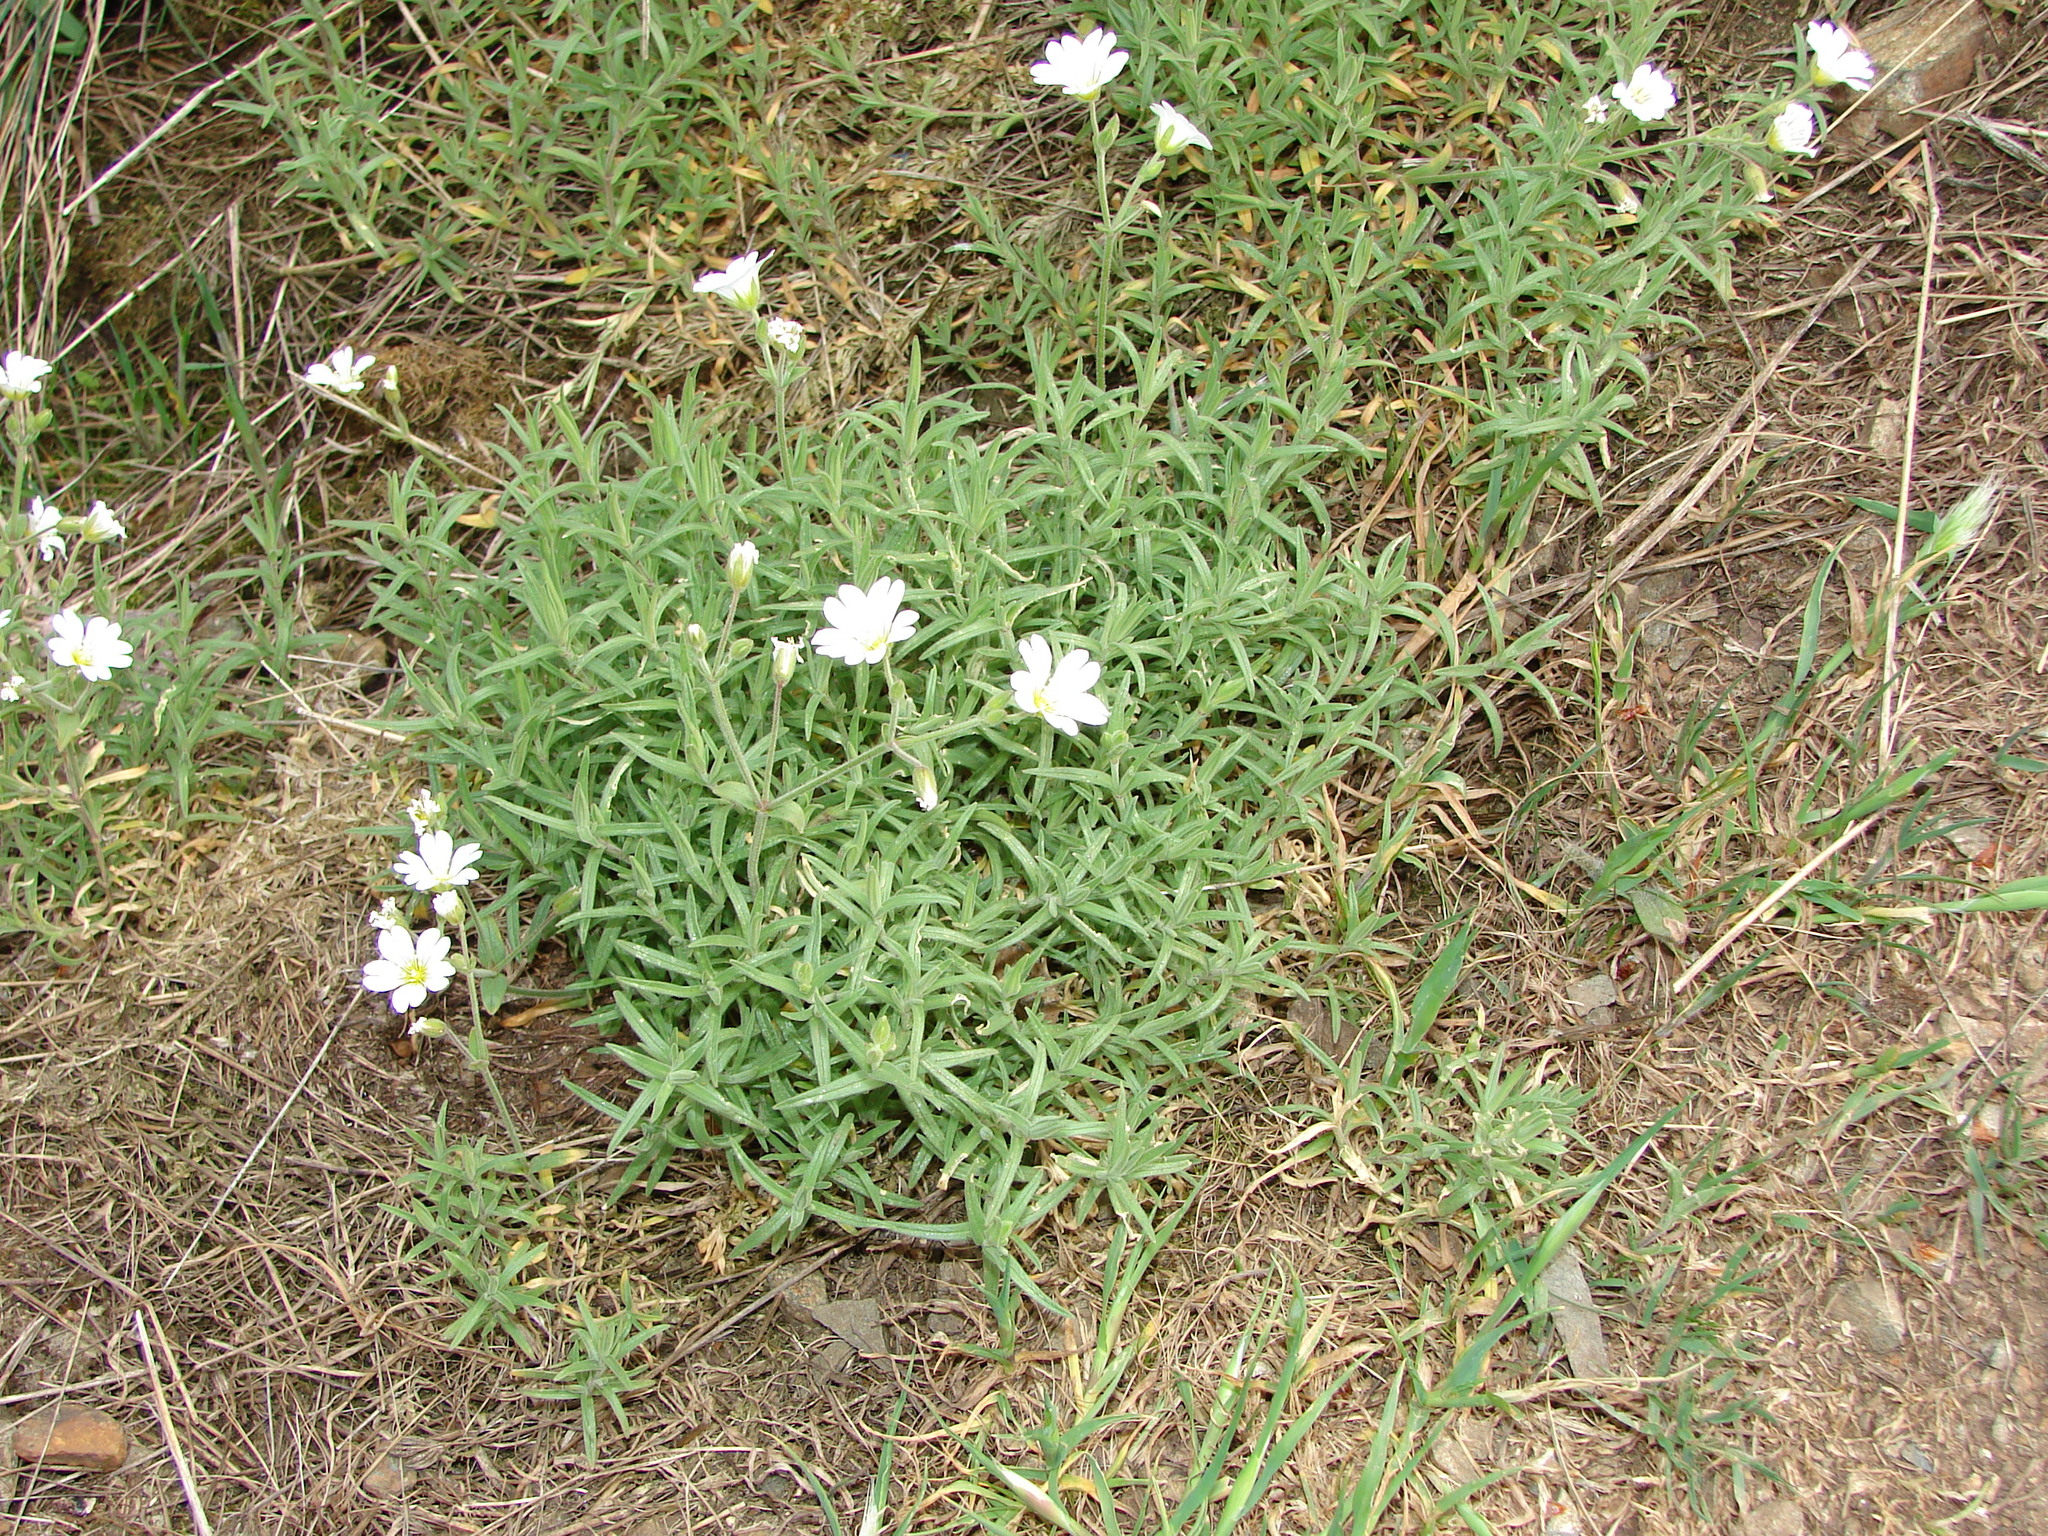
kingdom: Plantae
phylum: Tracheophyta
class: Magnoliopsida
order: Caryophyllales
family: Caryophyllaceae
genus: Cerastium
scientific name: Cerastium tomentosum
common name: Snow-in-summer
